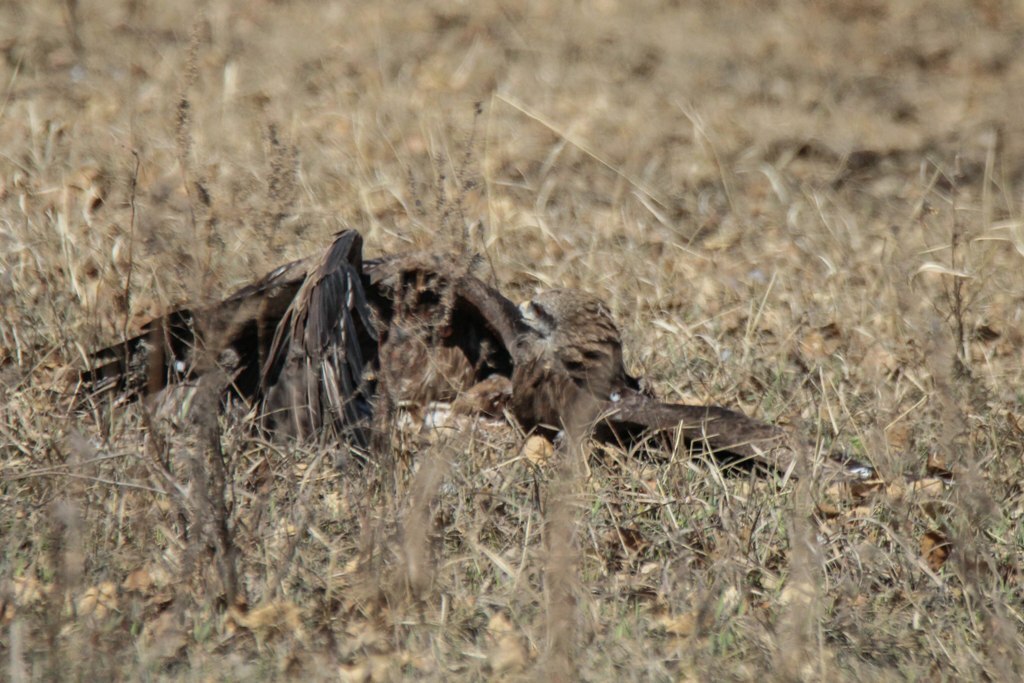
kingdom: Animalia
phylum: Chordata
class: Aves
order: Accipitriformes
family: Accipitridae
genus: Milvus
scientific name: Milvus migrans
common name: Black kite
